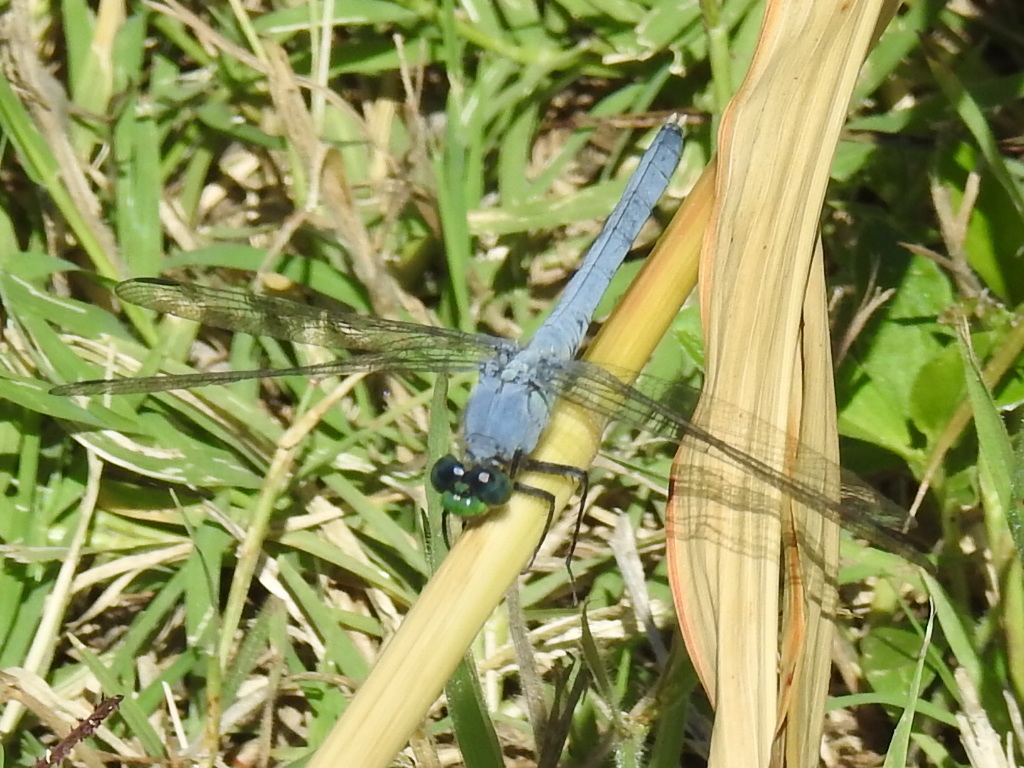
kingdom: Animalia
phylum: Arthropoda
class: Insecta
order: Odonata
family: Libellulidae
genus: Erythemis
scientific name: Erythemis simplicicollis
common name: Eastern pondhawk
